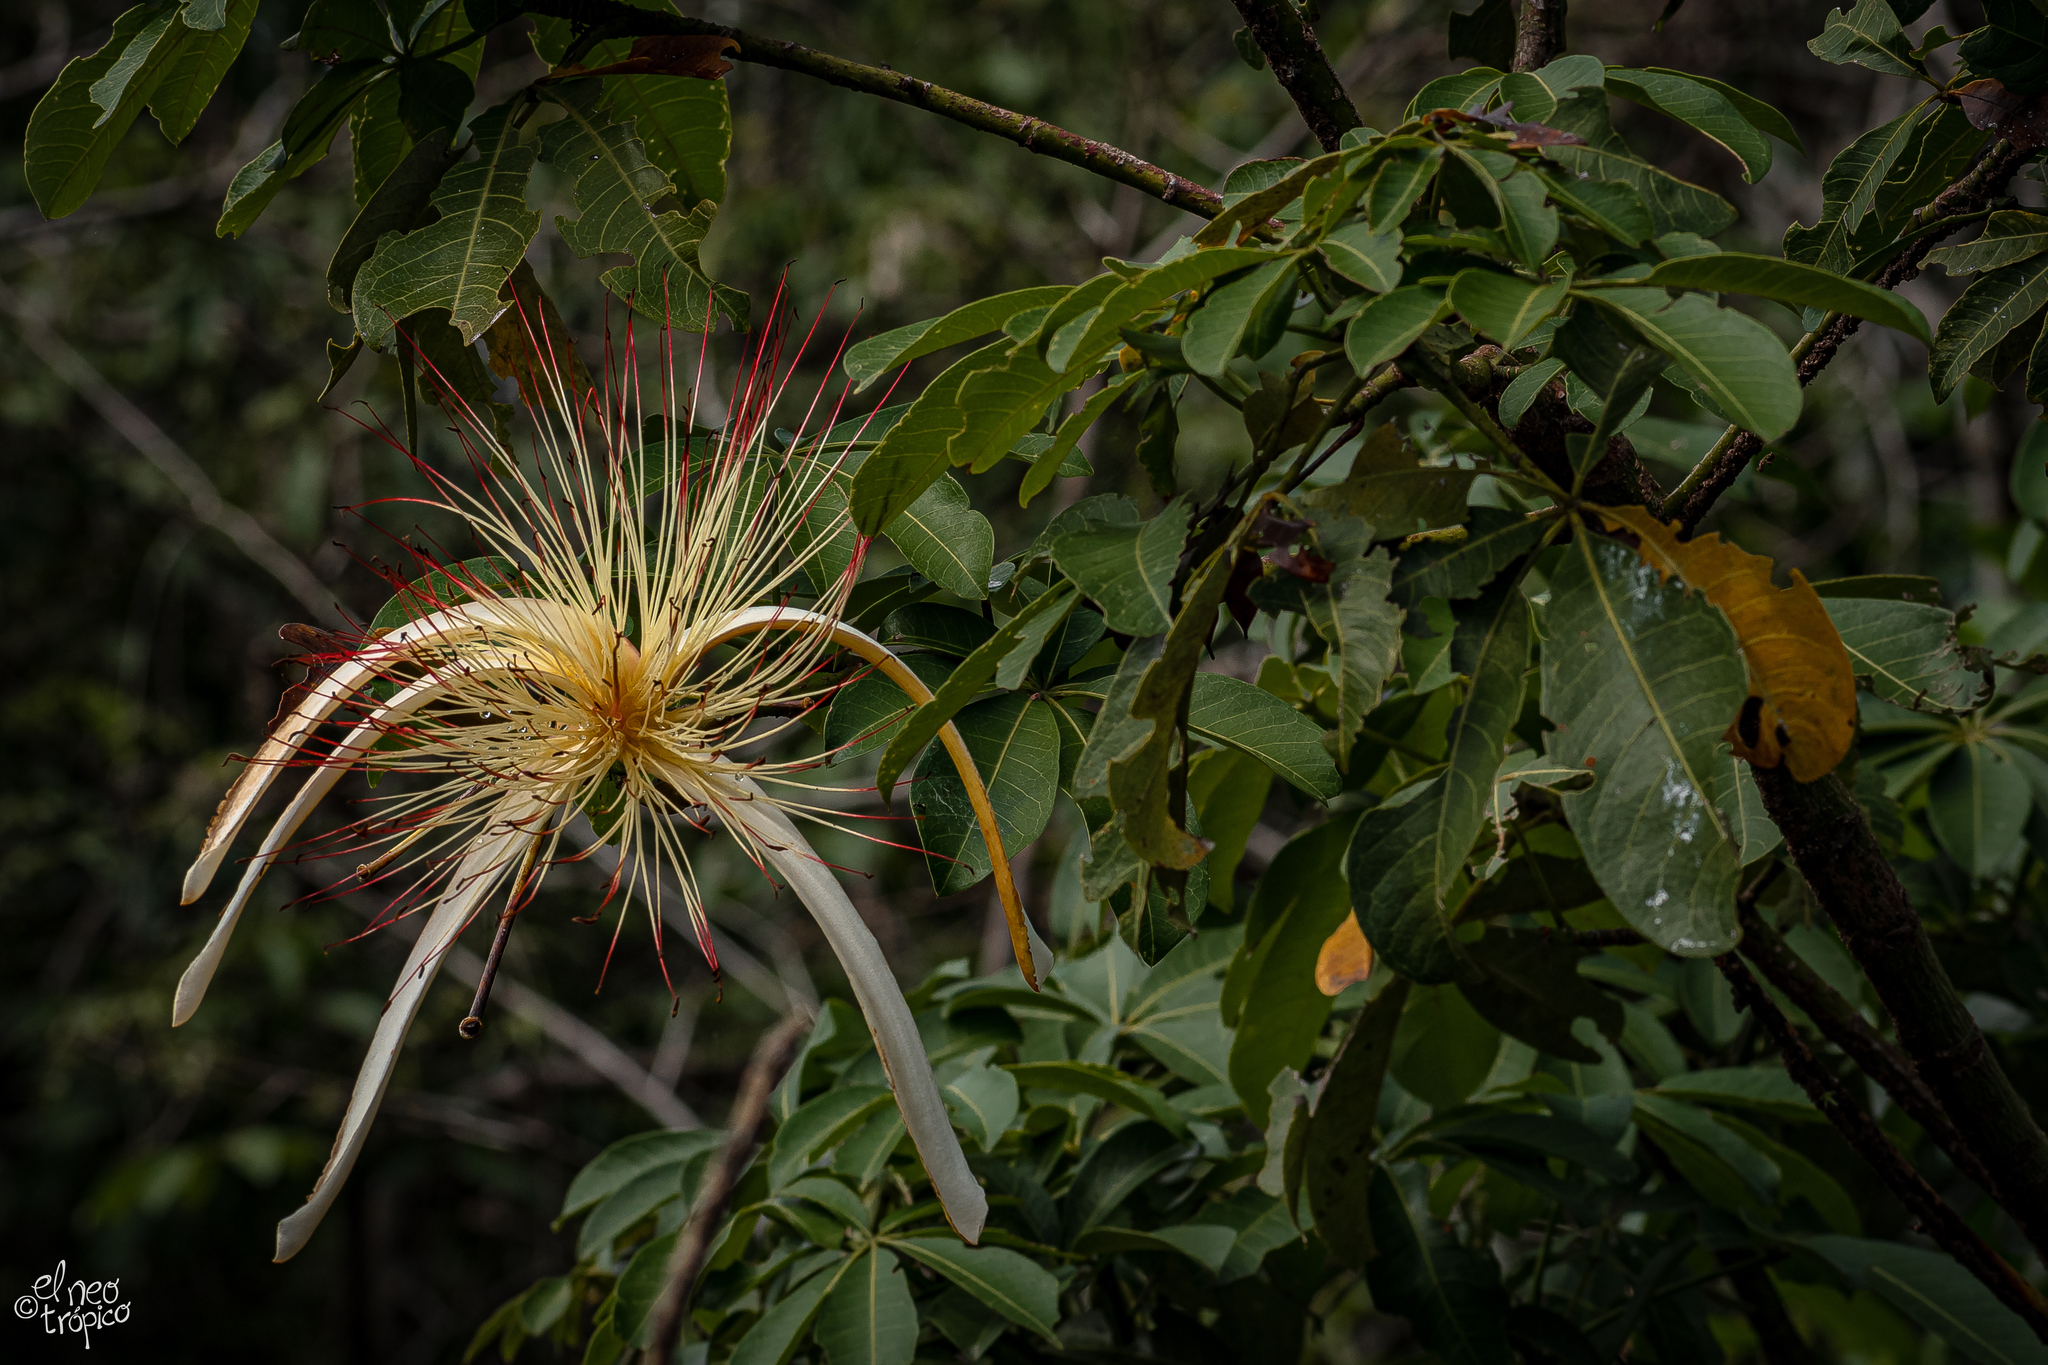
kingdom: Plantae
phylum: Tracheophyta
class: Magnoliopsida
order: Malvales
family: Malvaceae
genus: Pachira
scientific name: Pachira aquatica
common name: Provision-tree
